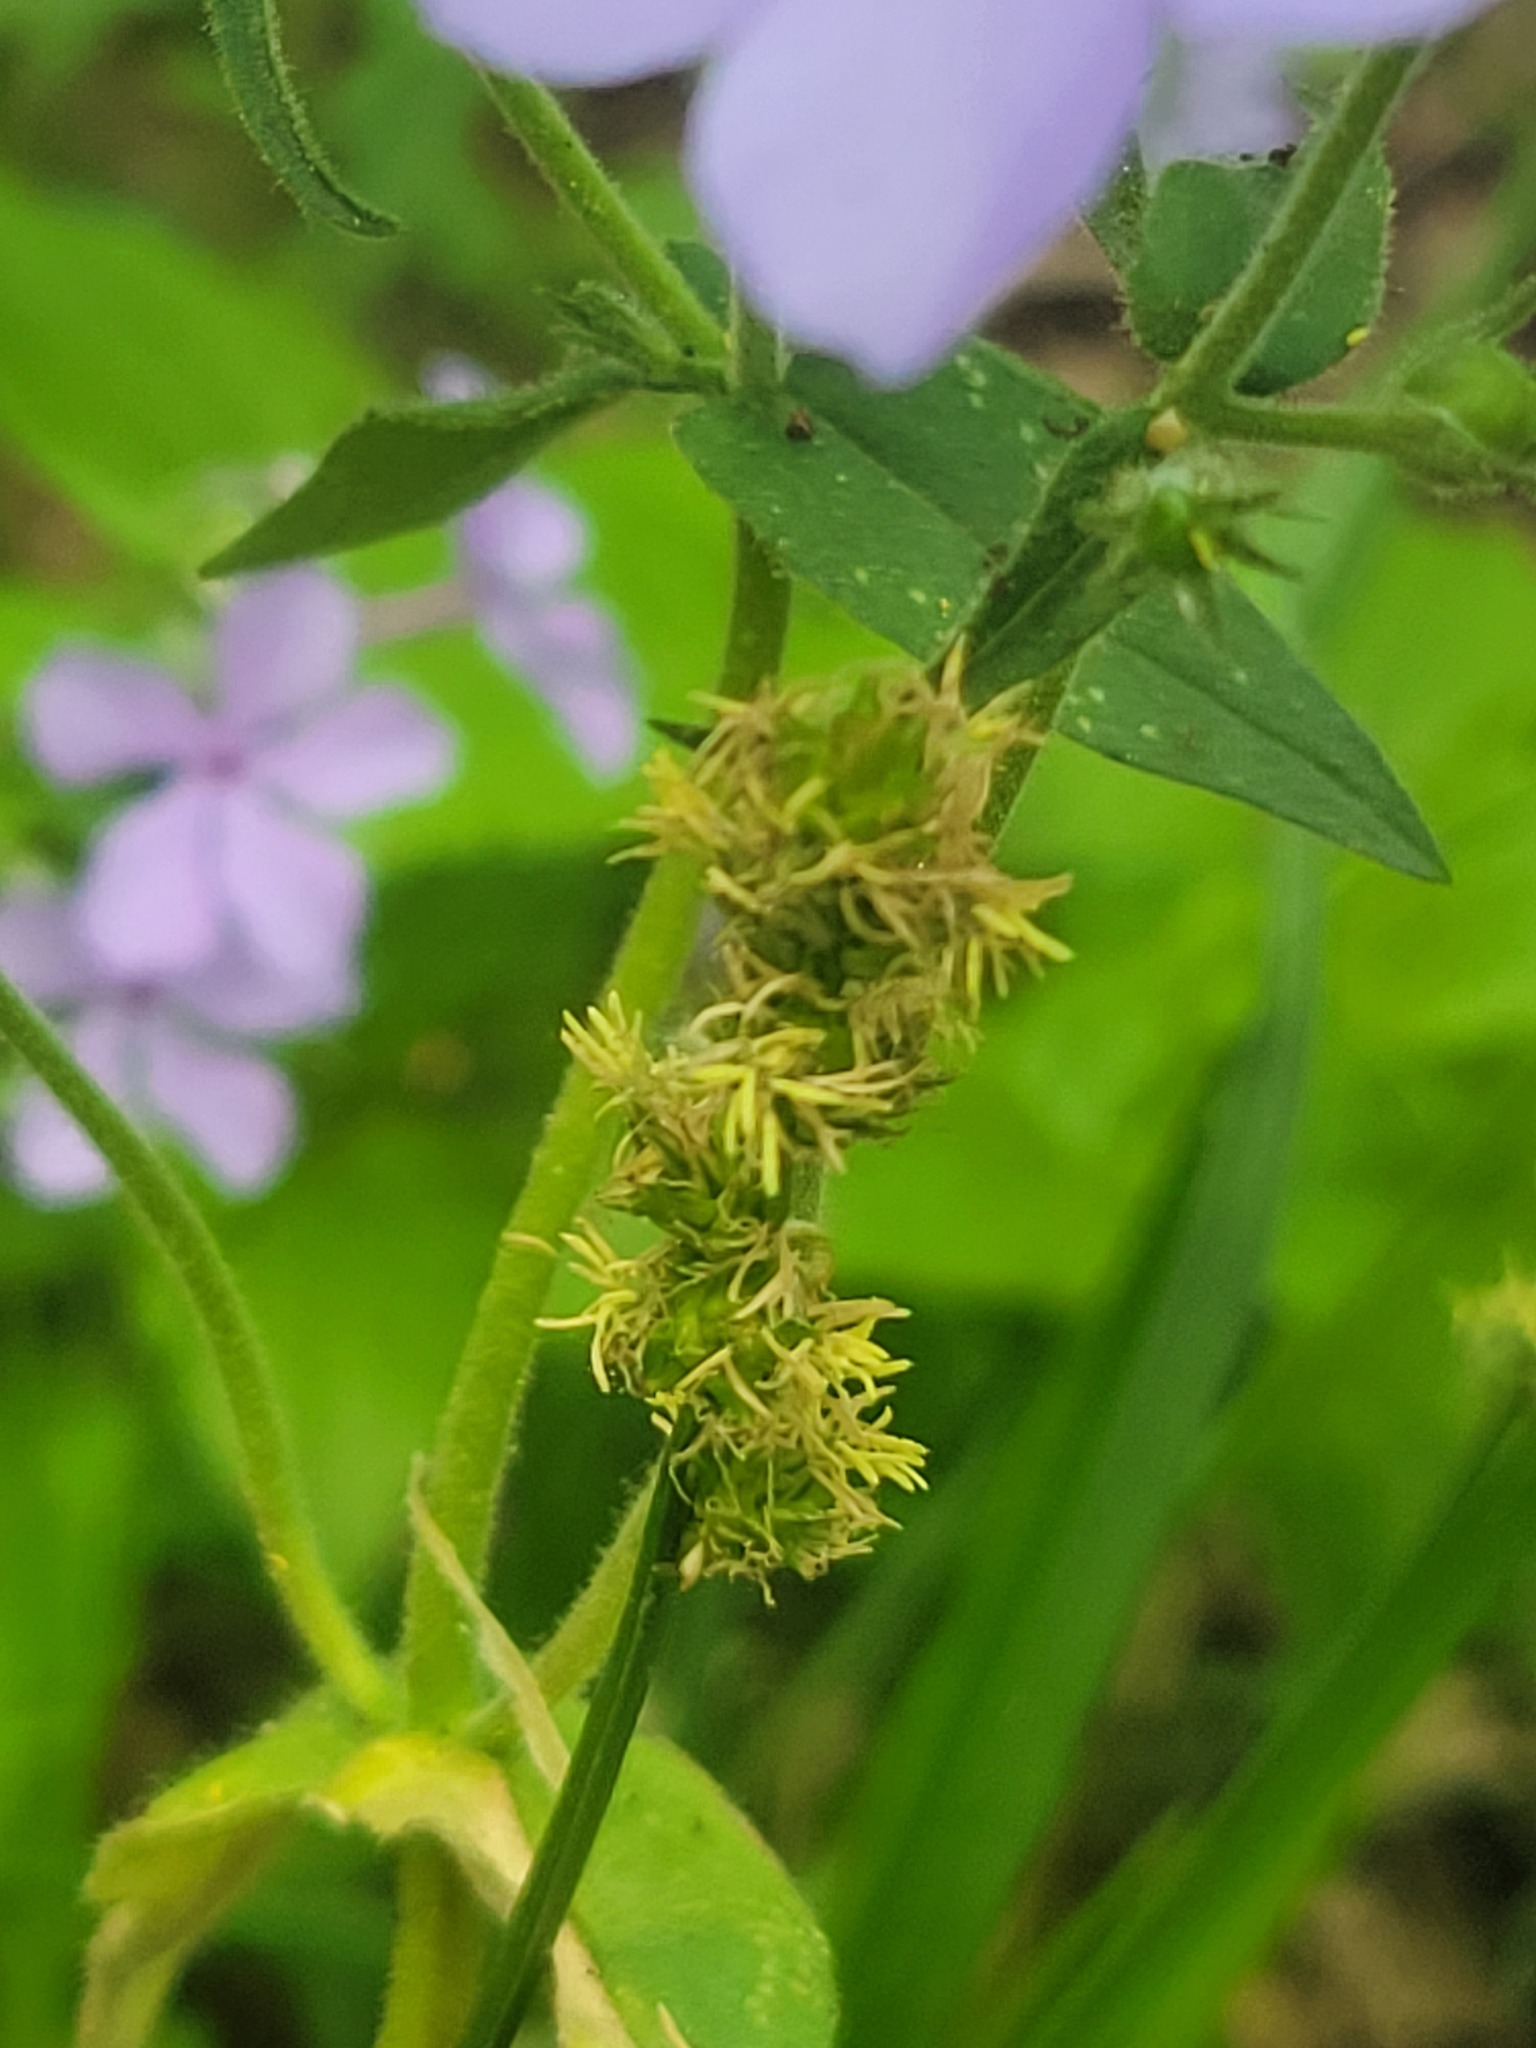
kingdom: Plantae
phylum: Tracheophyta
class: Magnoliopsida
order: Ericales
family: Polemoniaceae
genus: Phlox
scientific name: Phlox divaricata
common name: Blue phlox
